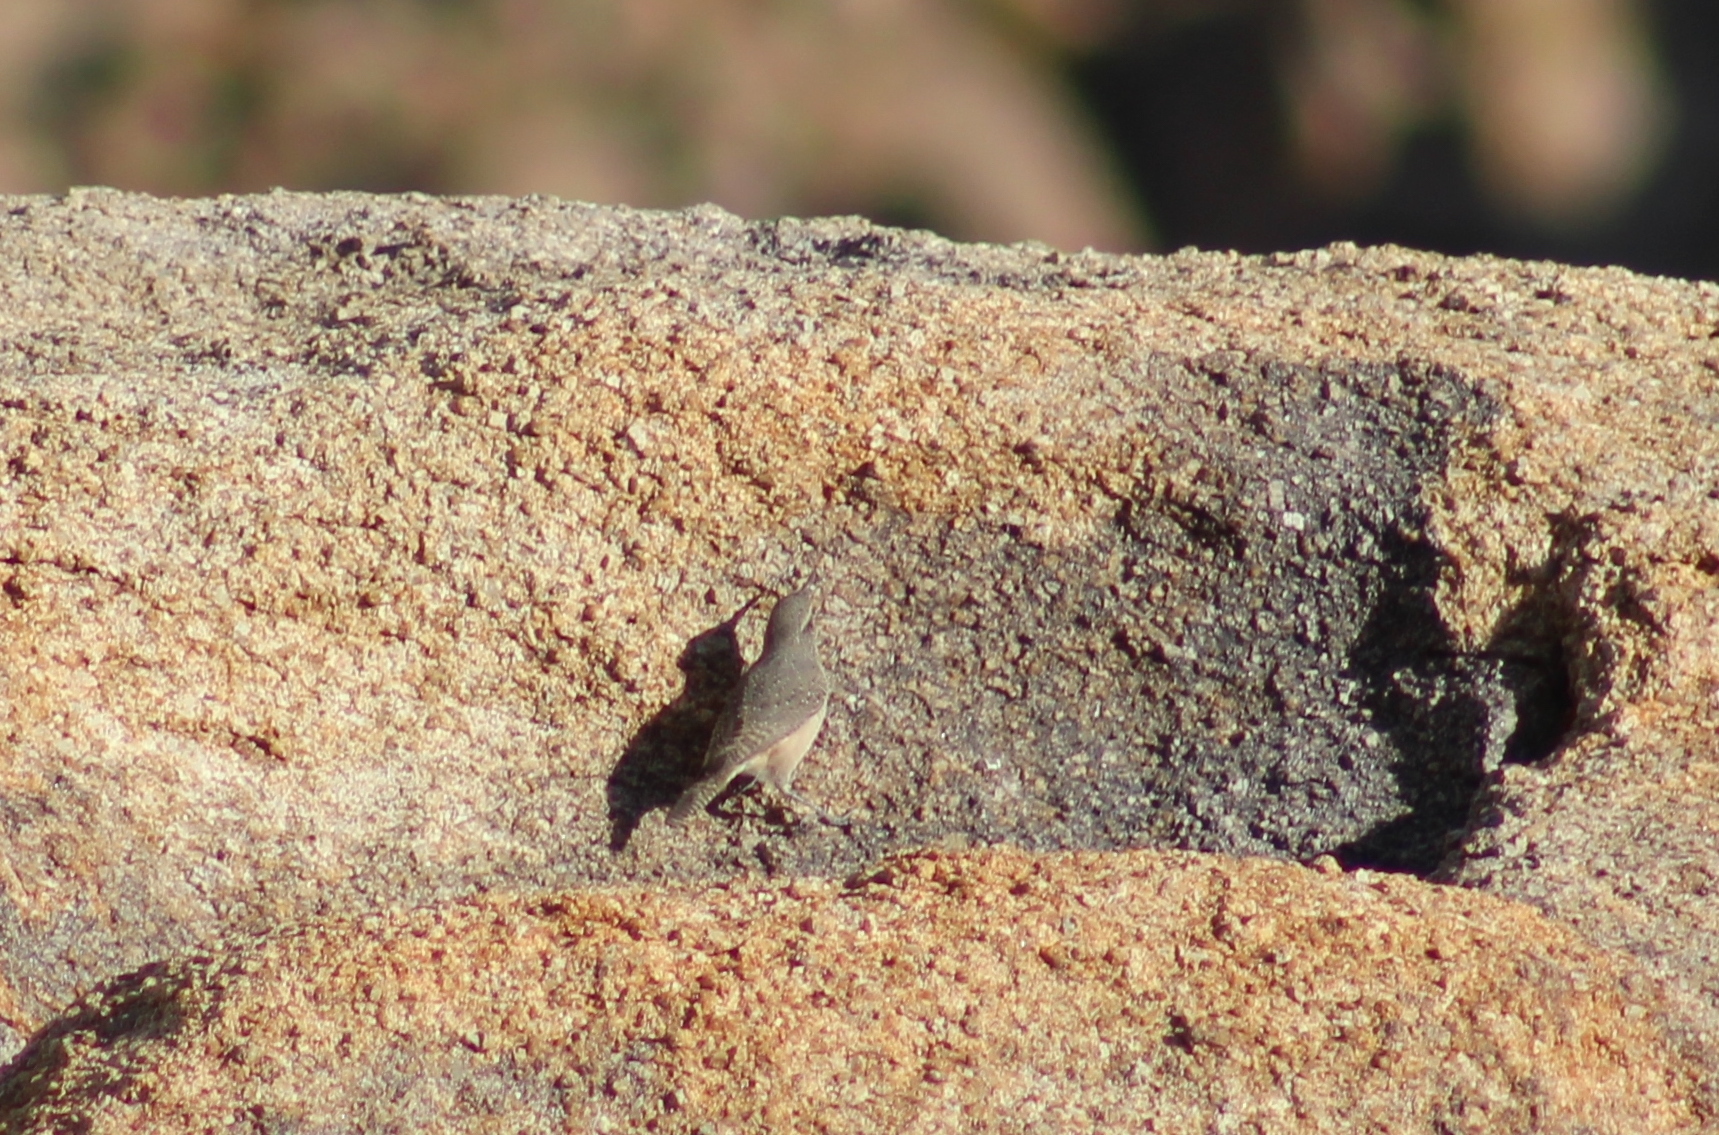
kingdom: Animalia
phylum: Chordata
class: Aves
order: Passeriformes
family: Troglodytidae
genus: Salpinctes
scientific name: Salpinctes obsoletus
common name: Rock wren
